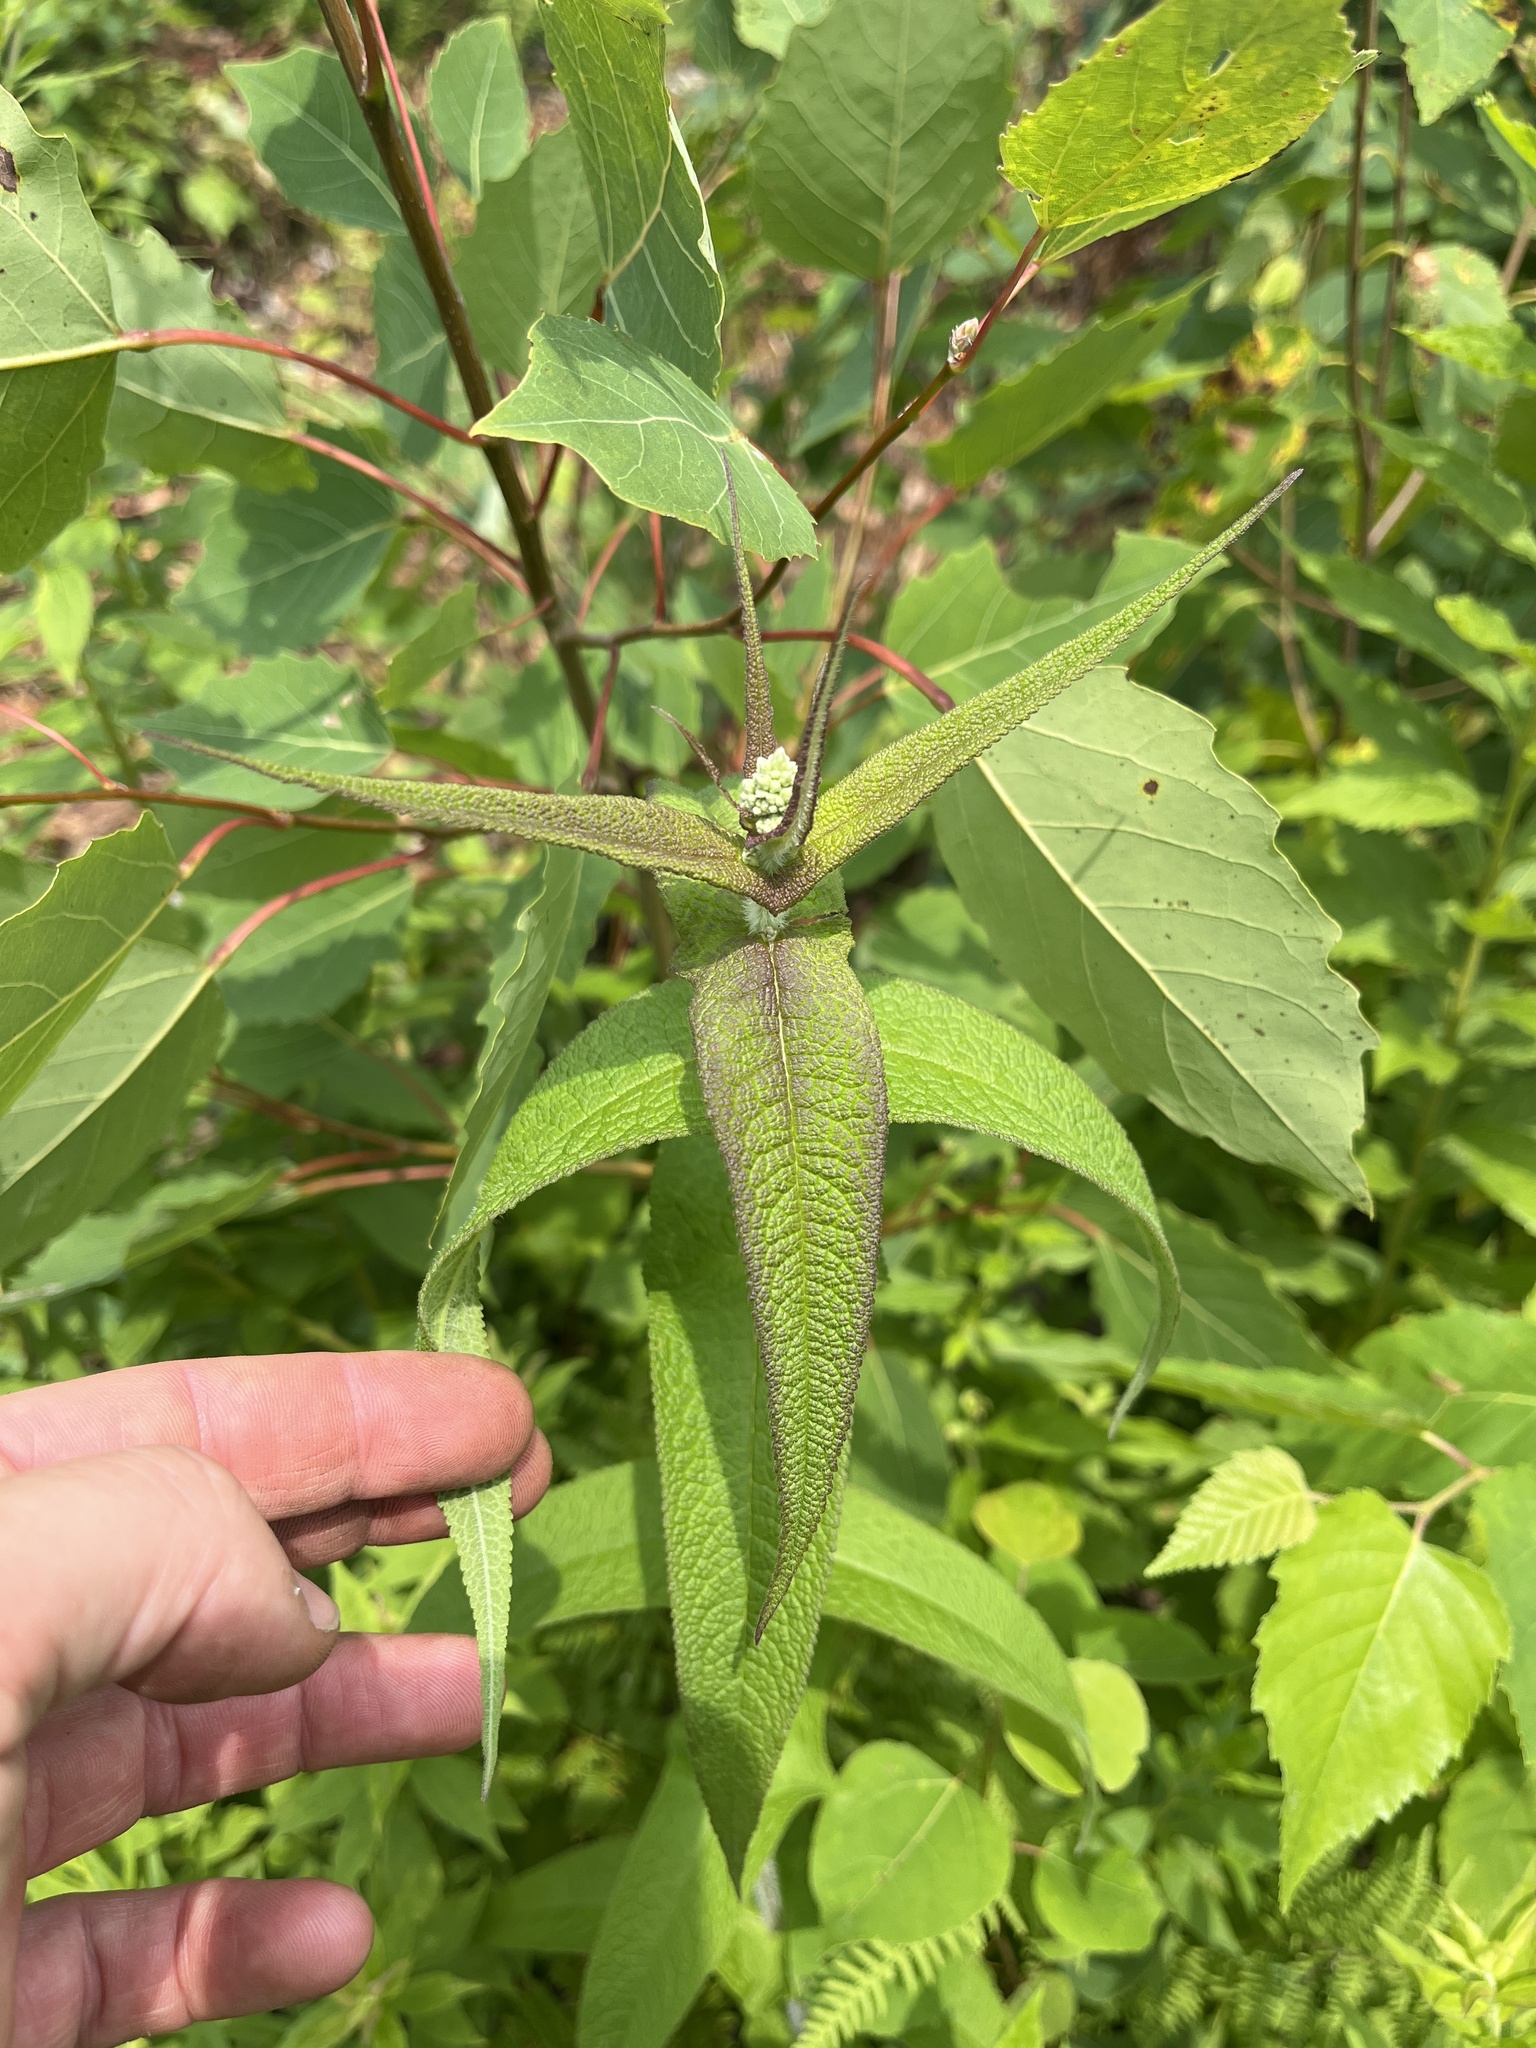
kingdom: Plantae
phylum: Tracheophyta
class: Magnoliopsida
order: Asterales
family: Asteraceae
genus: Eupatorium
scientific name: Eupatorium perfoliatum
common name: Boneset
